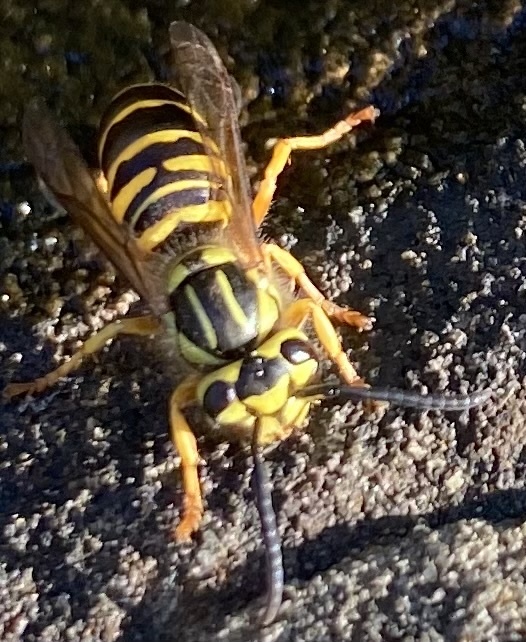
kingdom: Animalia
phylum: Arthropoda
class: Insecta
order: Hymenoptera
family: Vespidae
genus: Vespula
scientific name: Vespula squamosa
